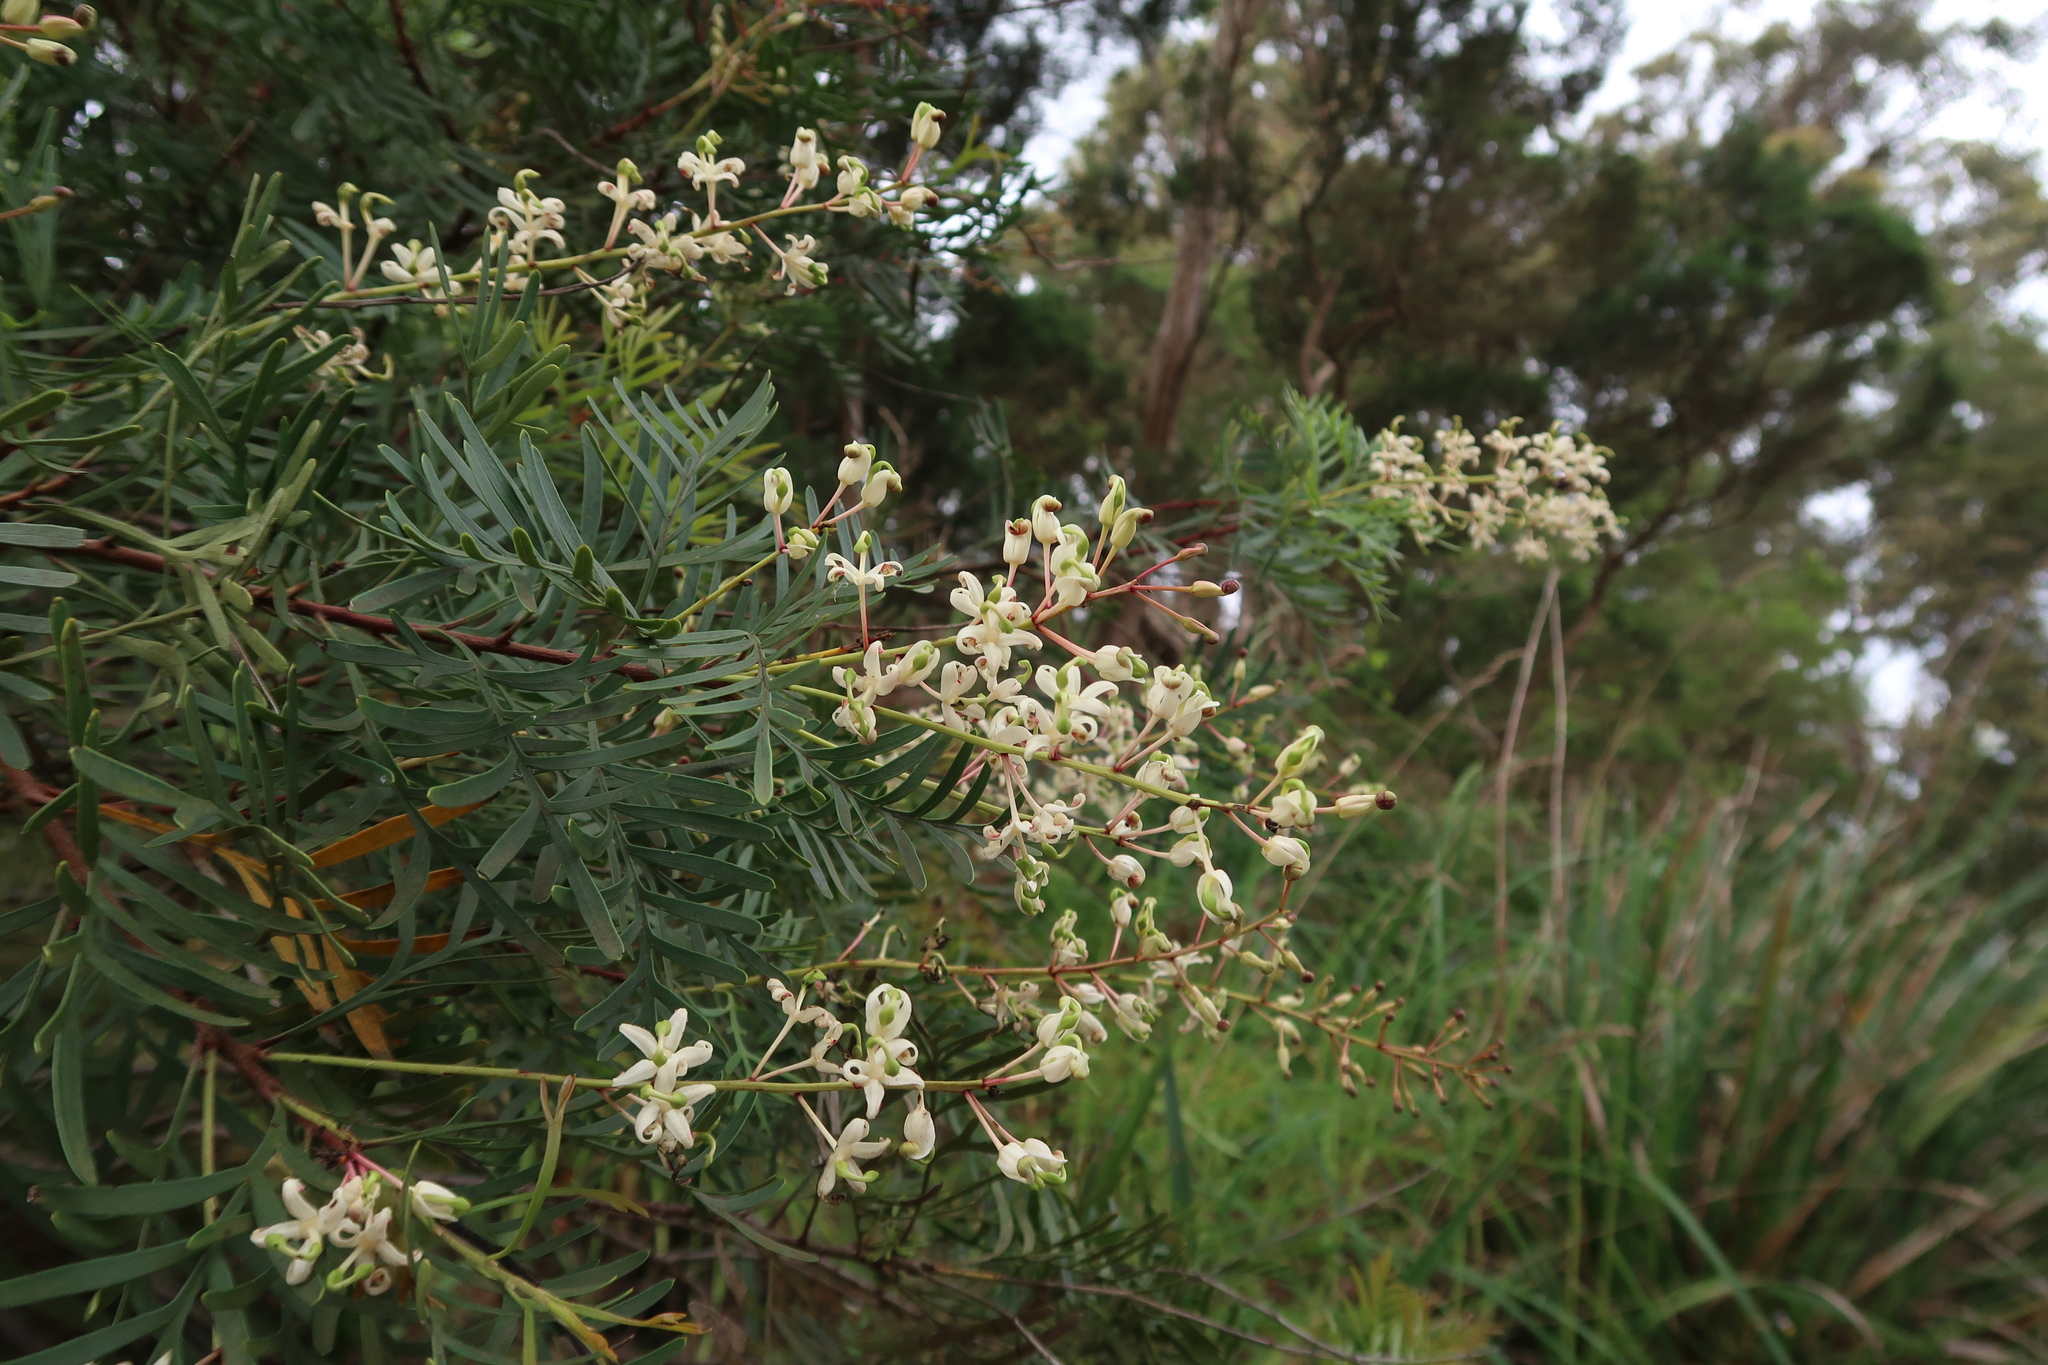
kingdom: Plantae
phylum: Tracheophyta
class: Magnoliopsida
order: Proteales
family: Proteaceae
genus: Lomatia
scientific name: Lomatia tinctoria
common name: Guitar plant
